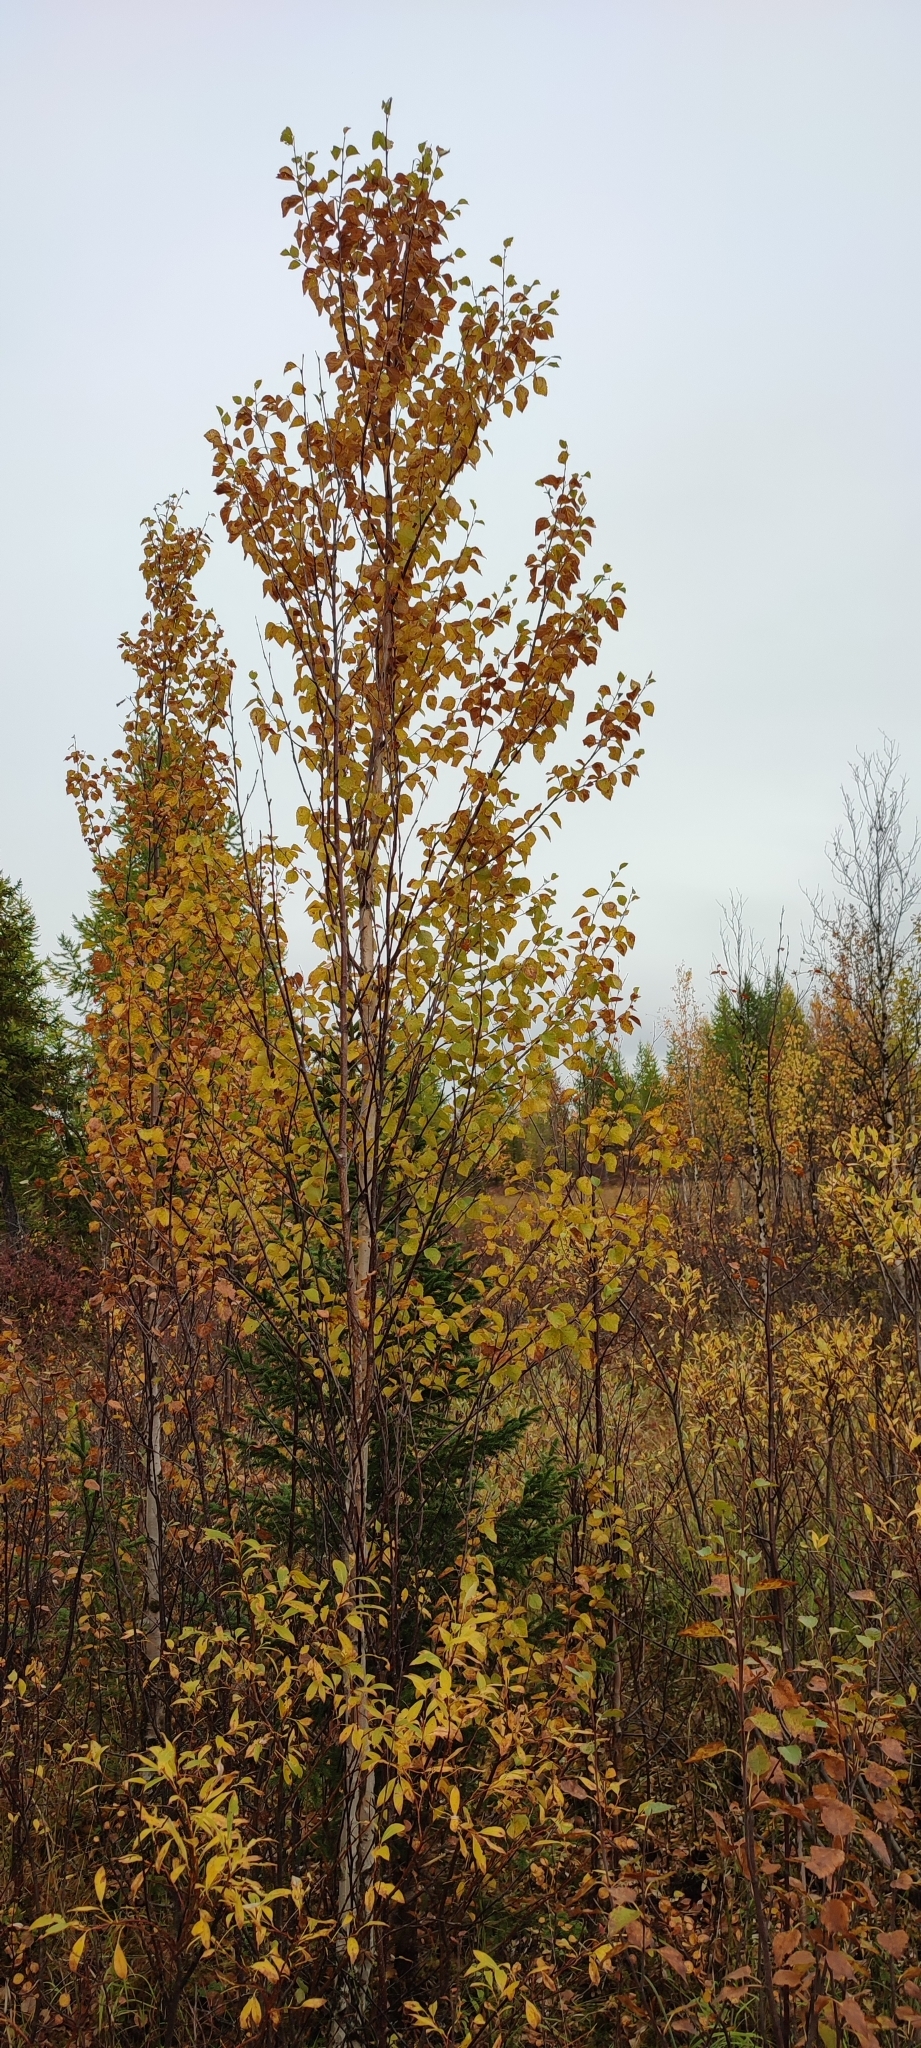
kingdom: Plantae
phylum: Tracheophyta
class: Magnoliopsida
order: Fagales
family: Betulaceae
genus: Betula
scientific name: Betula pubescens
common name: Downy birch
